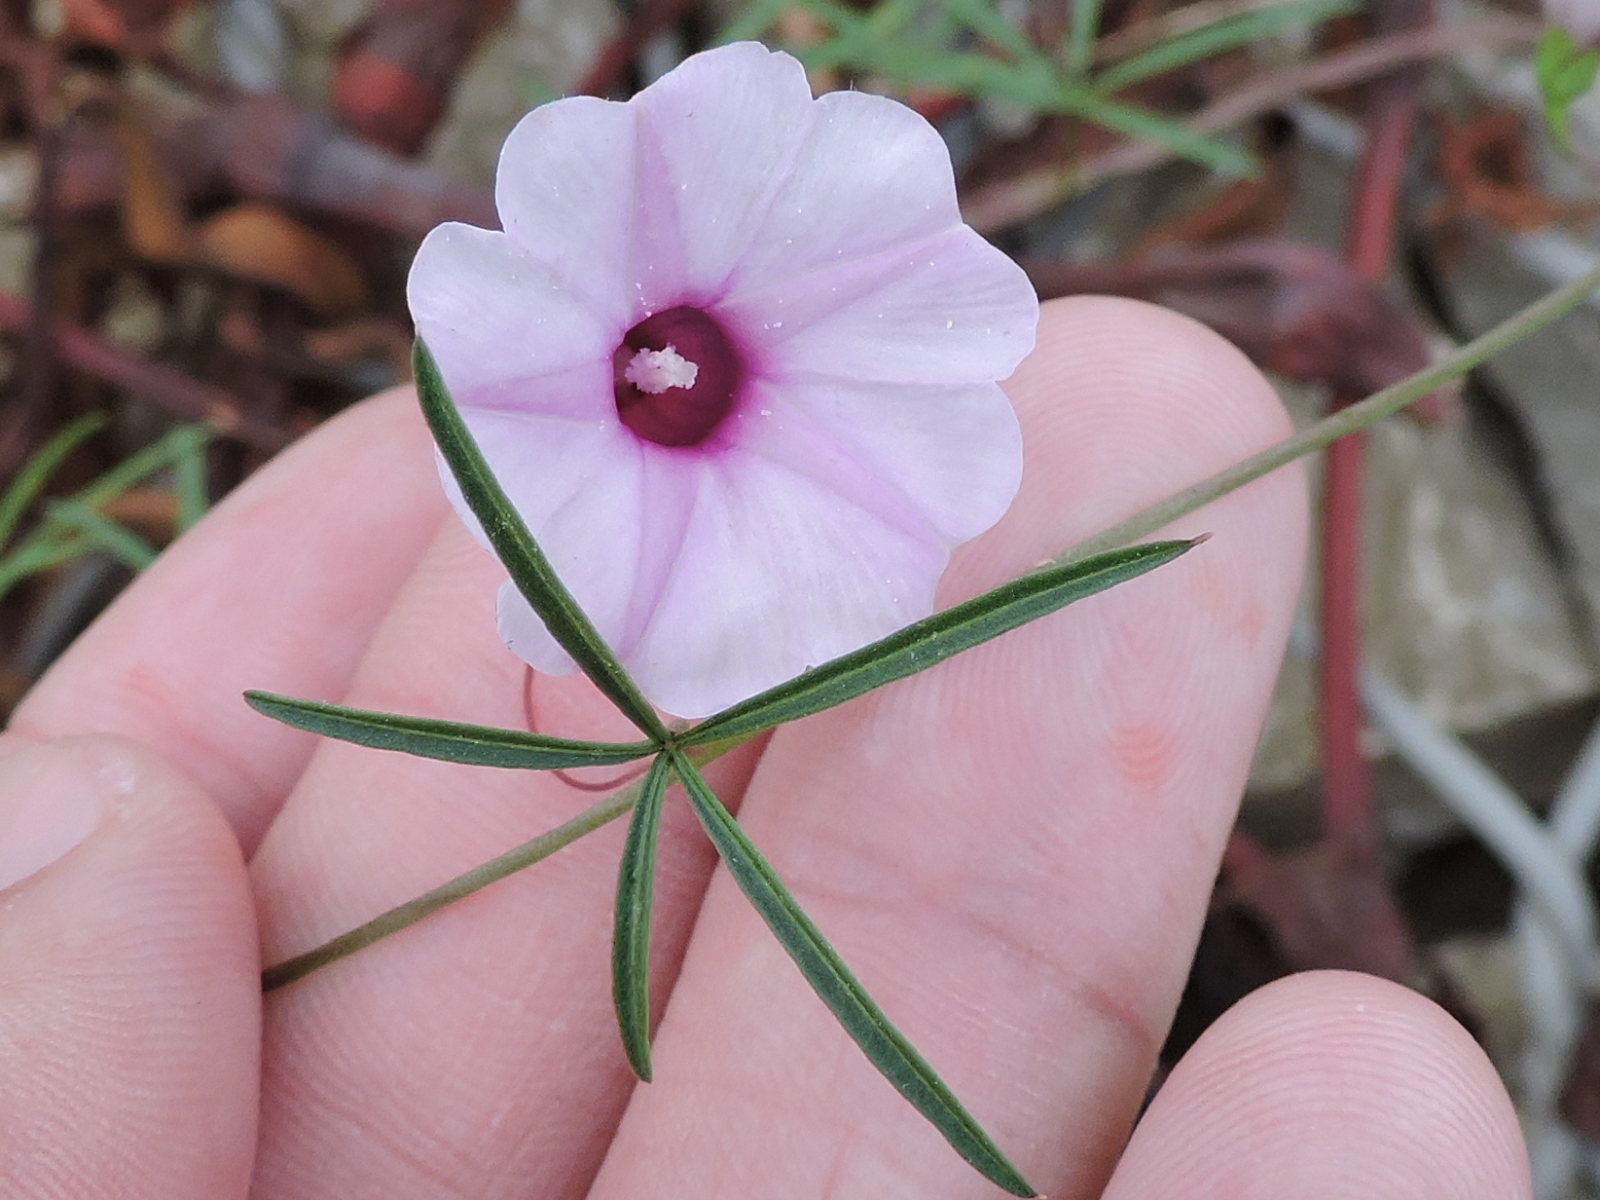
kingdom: Plantae
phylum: Tracheophyta
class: Magnoliopsida
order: Solanales
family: Convolvulaceae
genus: Ipomoea
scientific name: Ipomoea heptaphylla
